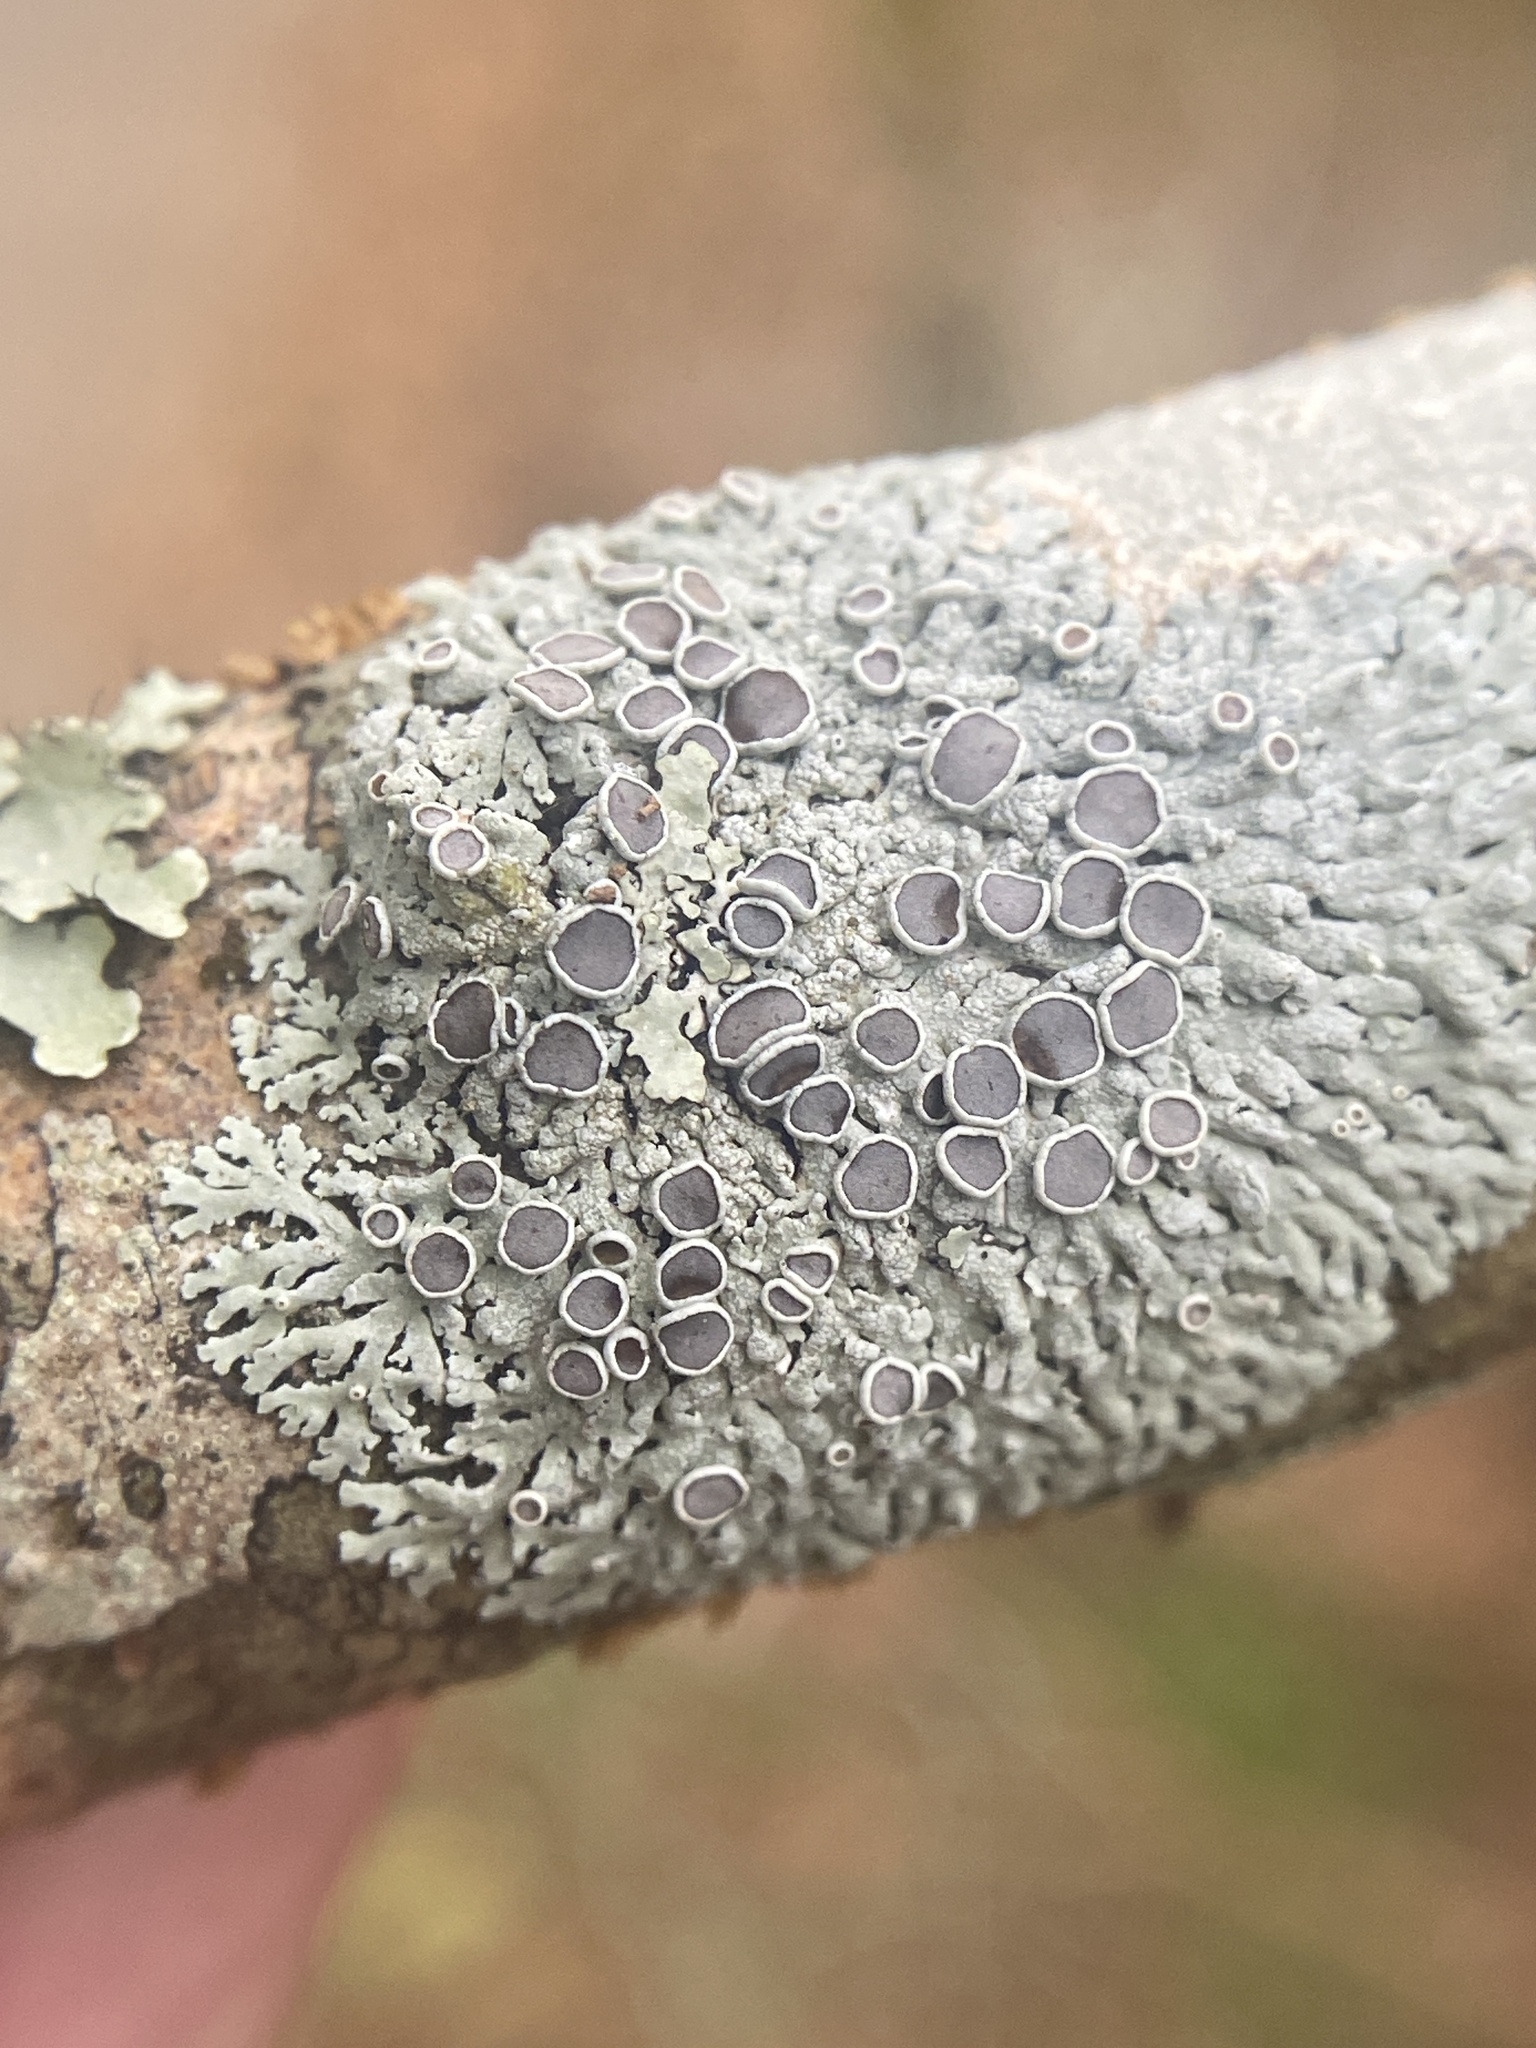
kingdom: Fungi
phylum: Ascomycota
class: Lecanoromycetes
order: Caliciales
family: Physciaceae
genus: Physcia
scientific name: Physcia pumilior
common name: Lesser gray legs
